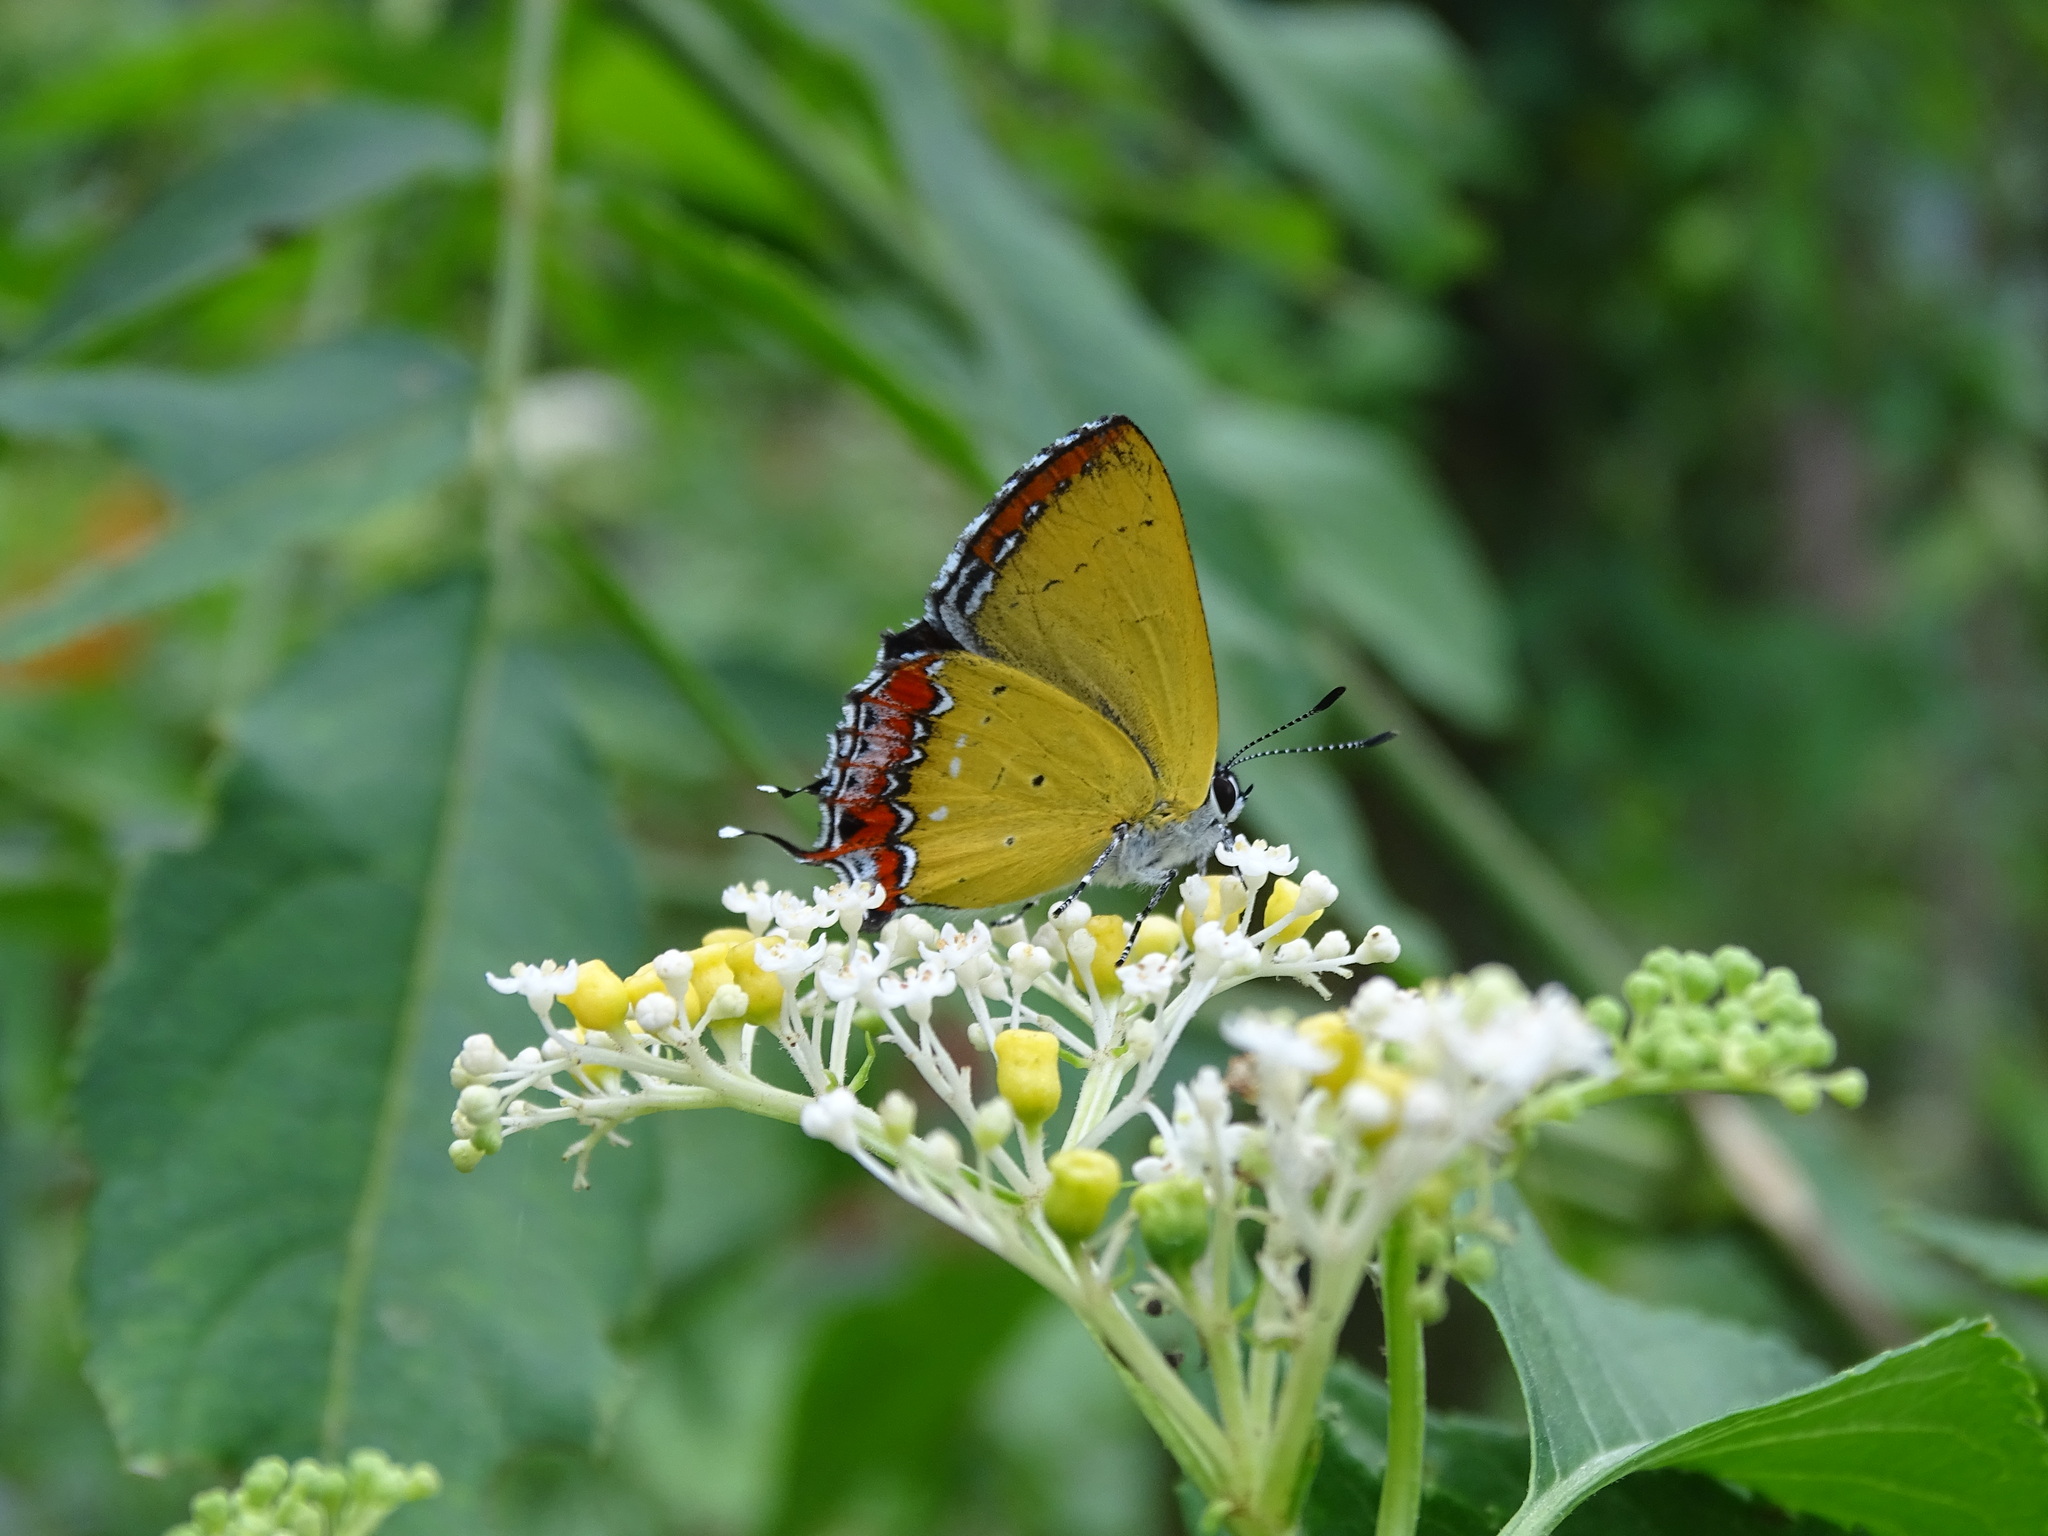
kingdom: Animalia
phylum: Arthropoda
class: Insecta
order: Lepidoptera
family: Lycaenidae
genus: Heliophorus
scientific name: Heliophorus ila
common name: Restricted purple sapphire
